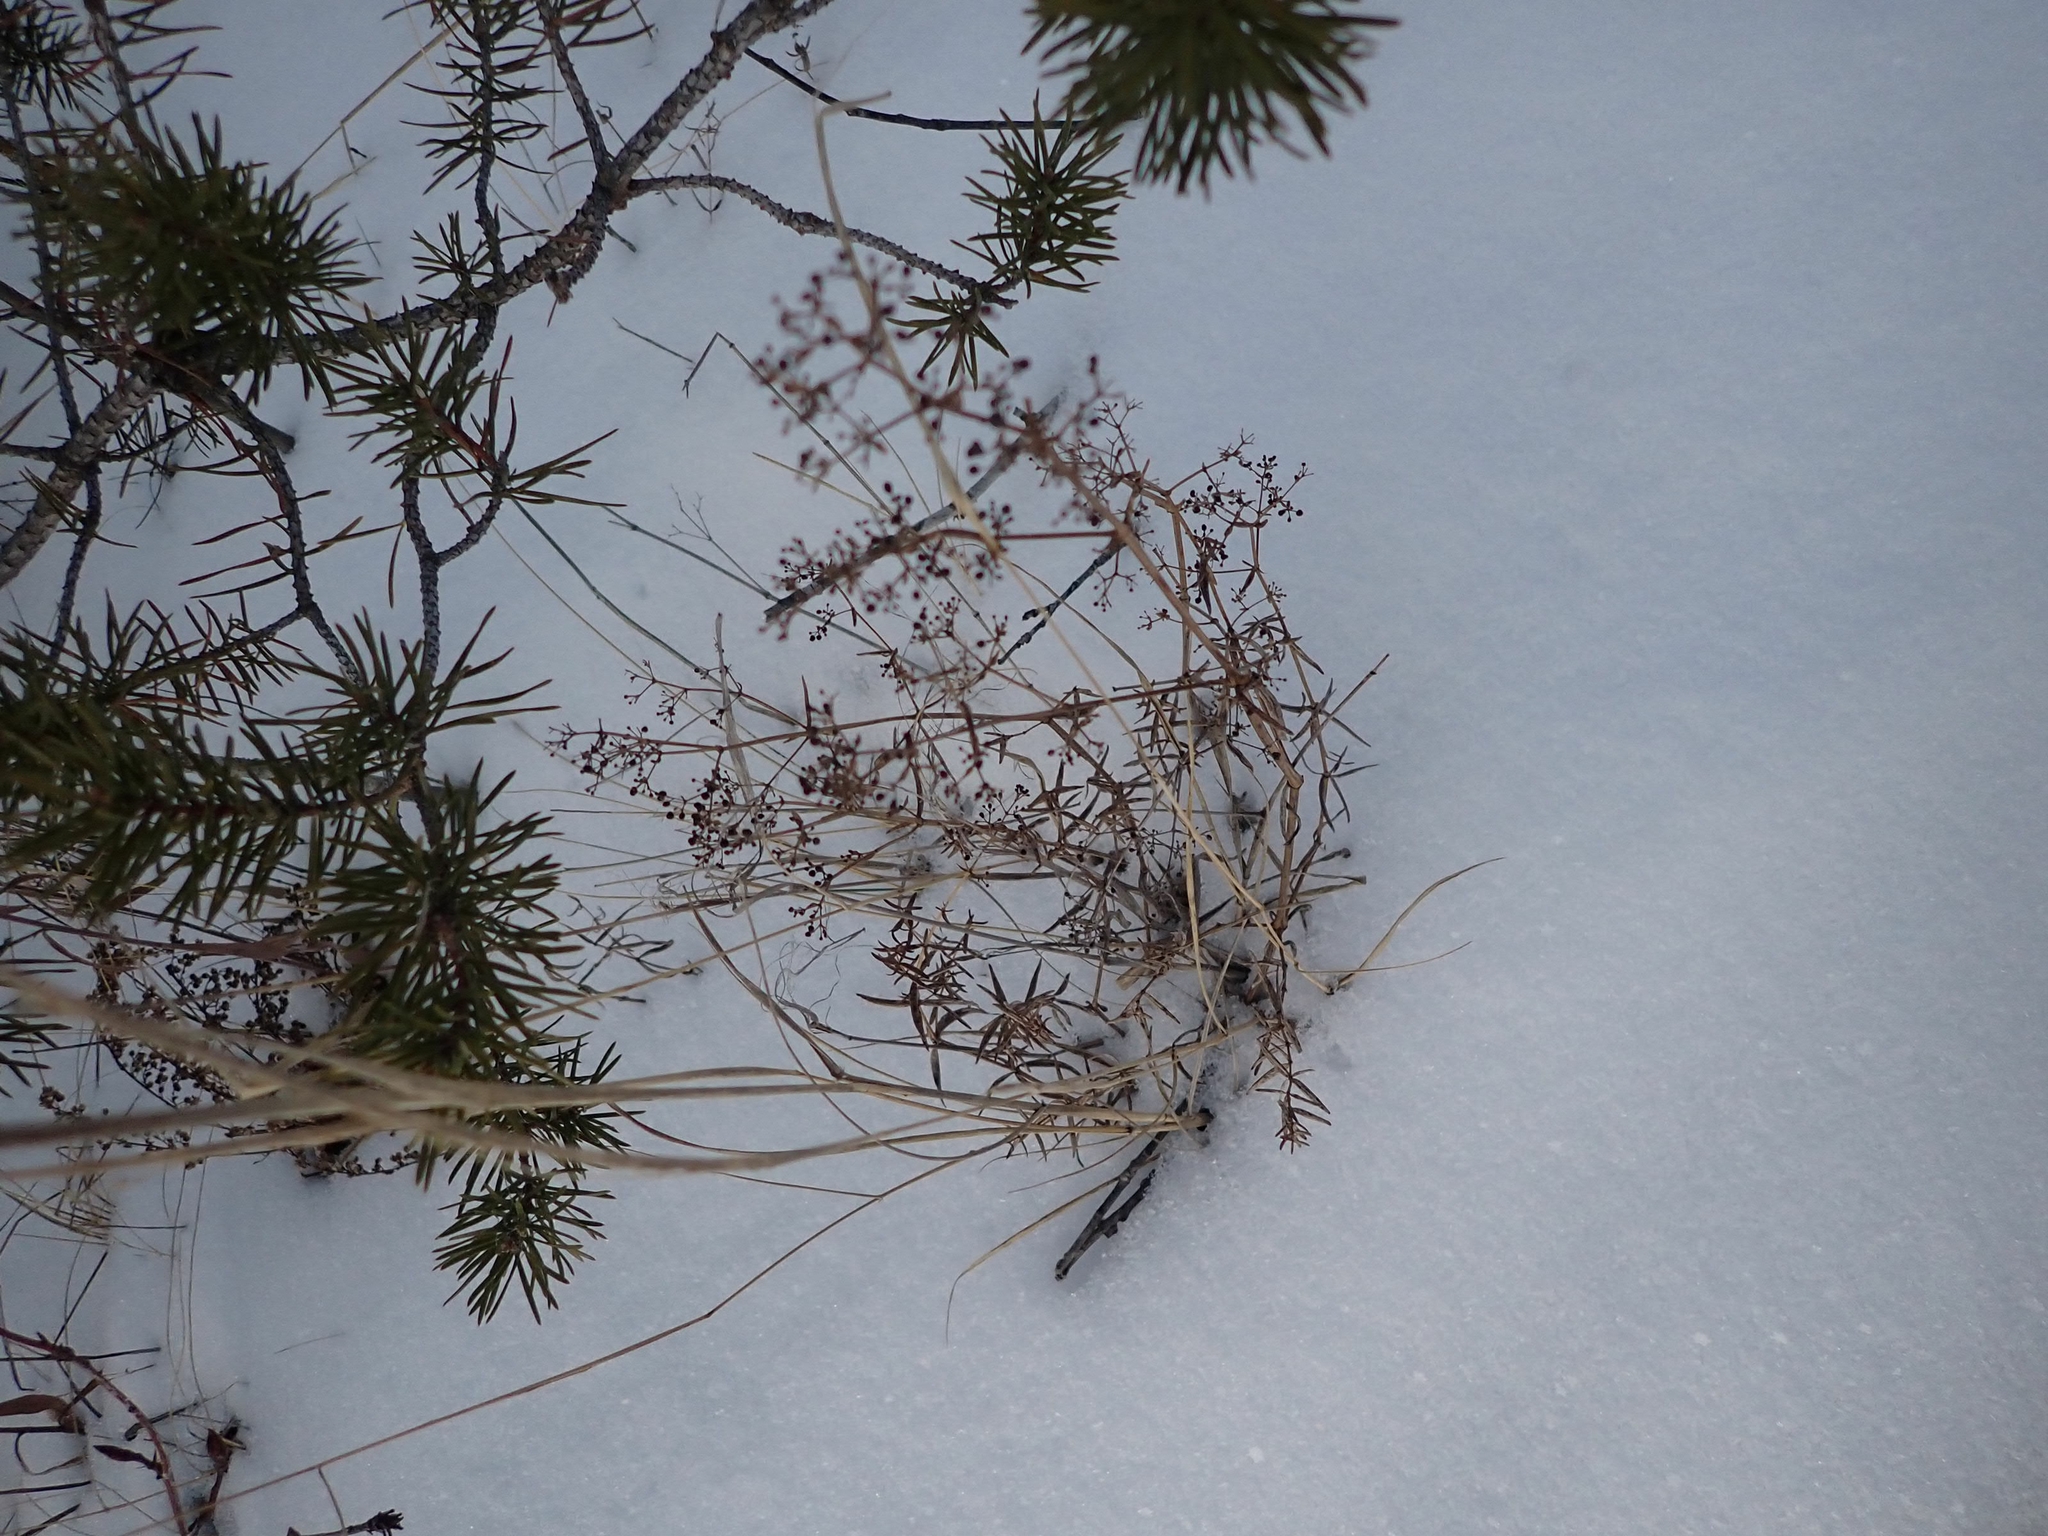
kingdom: Plantae
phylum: Tracheophyta
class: Magnoliopsida
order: Gentianales
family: Rubiaceae
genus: Galium
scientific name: Galium boreale
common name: Northern bedstraw
